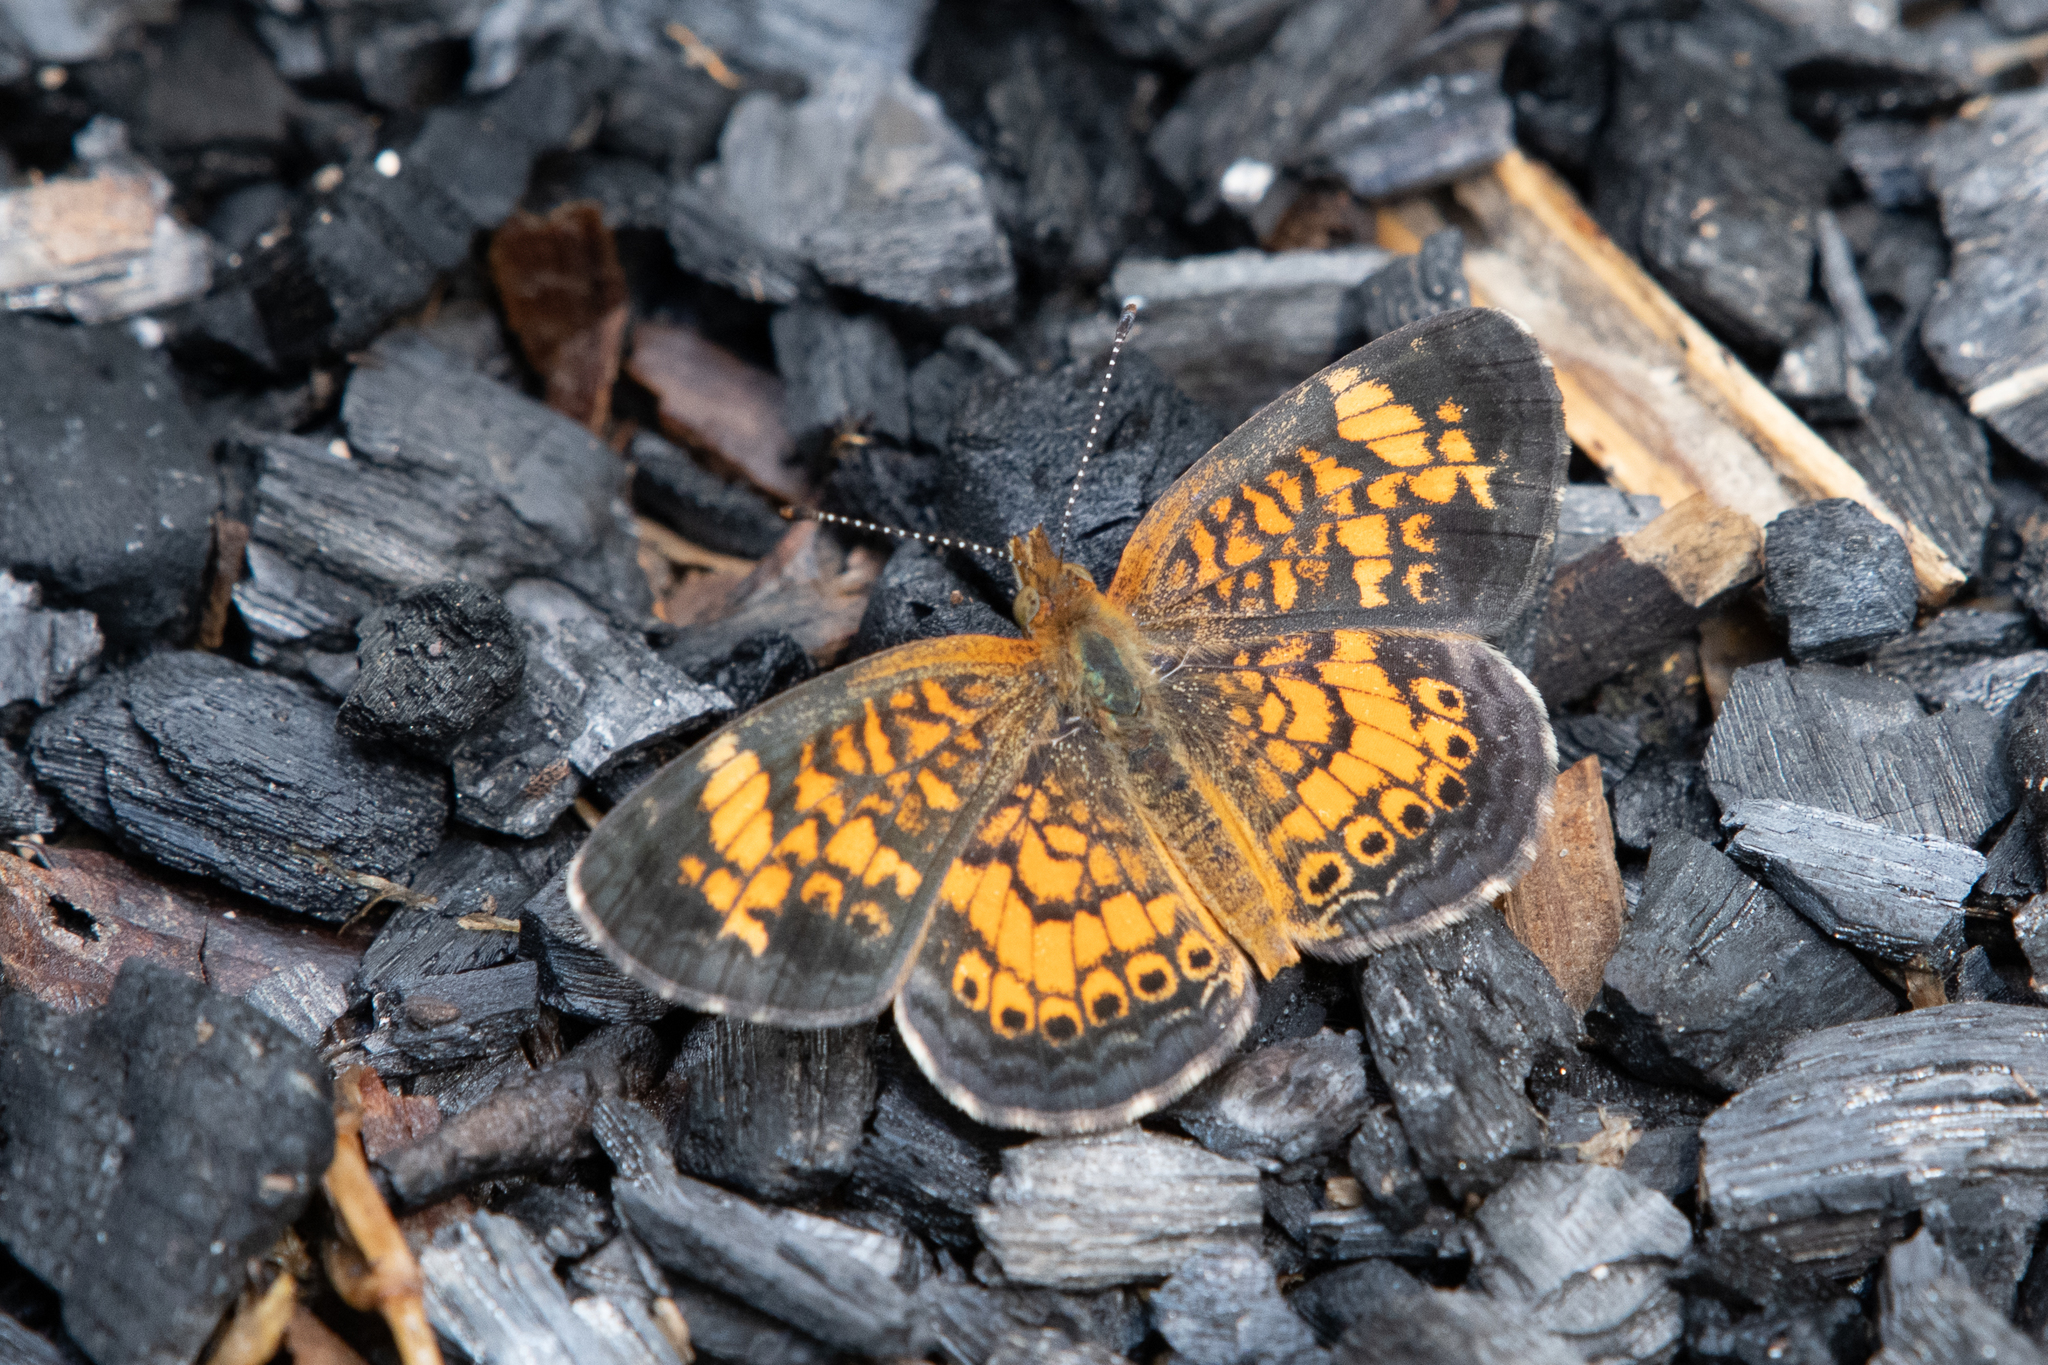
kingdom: Animalia
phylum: Arthropoda
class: Insecta
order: Lepidoptera
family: Nymphalidae
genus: Phyciodes
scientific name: Phyciodes tharos
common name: Pearl crescent
